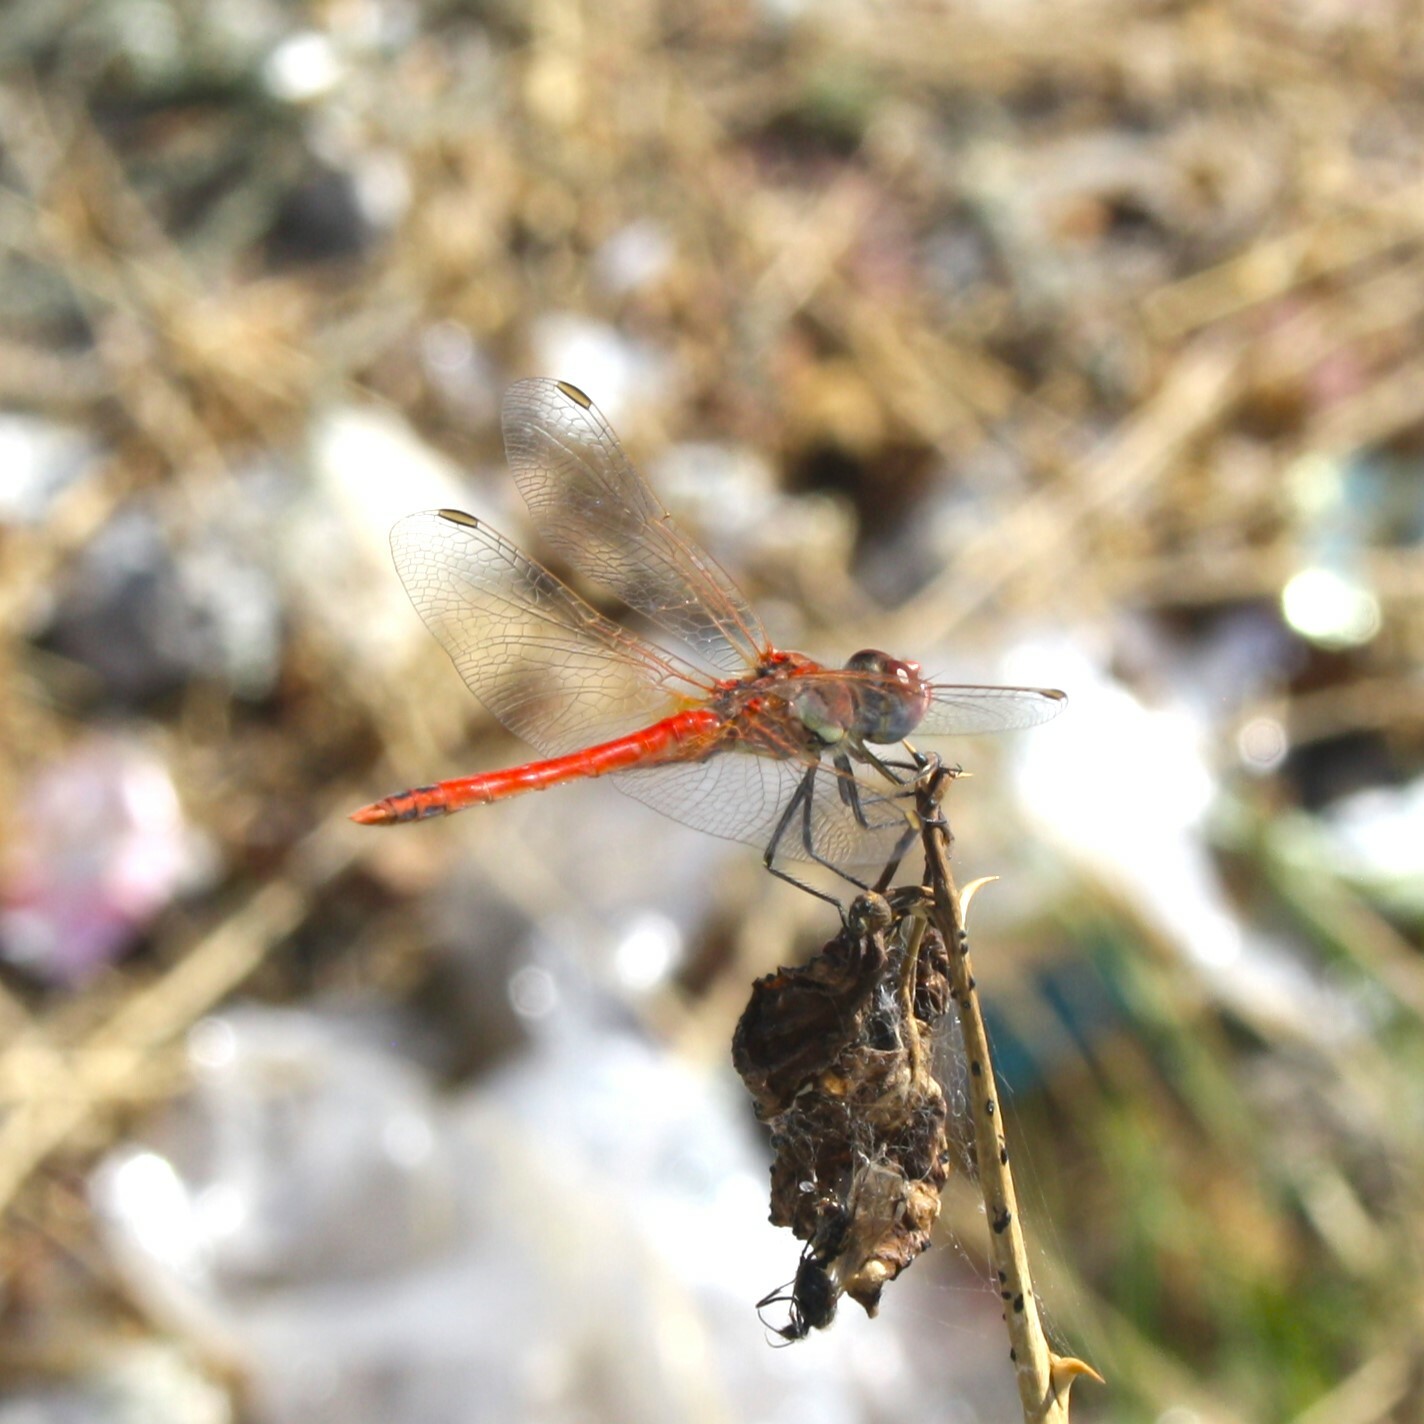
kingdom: Animalia
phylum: Arthropoda
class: Insecta
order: Odonata
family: Libellulidae
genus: Sympetrum
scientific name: Sympetrum fonscolombii
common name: Red-veined darter
